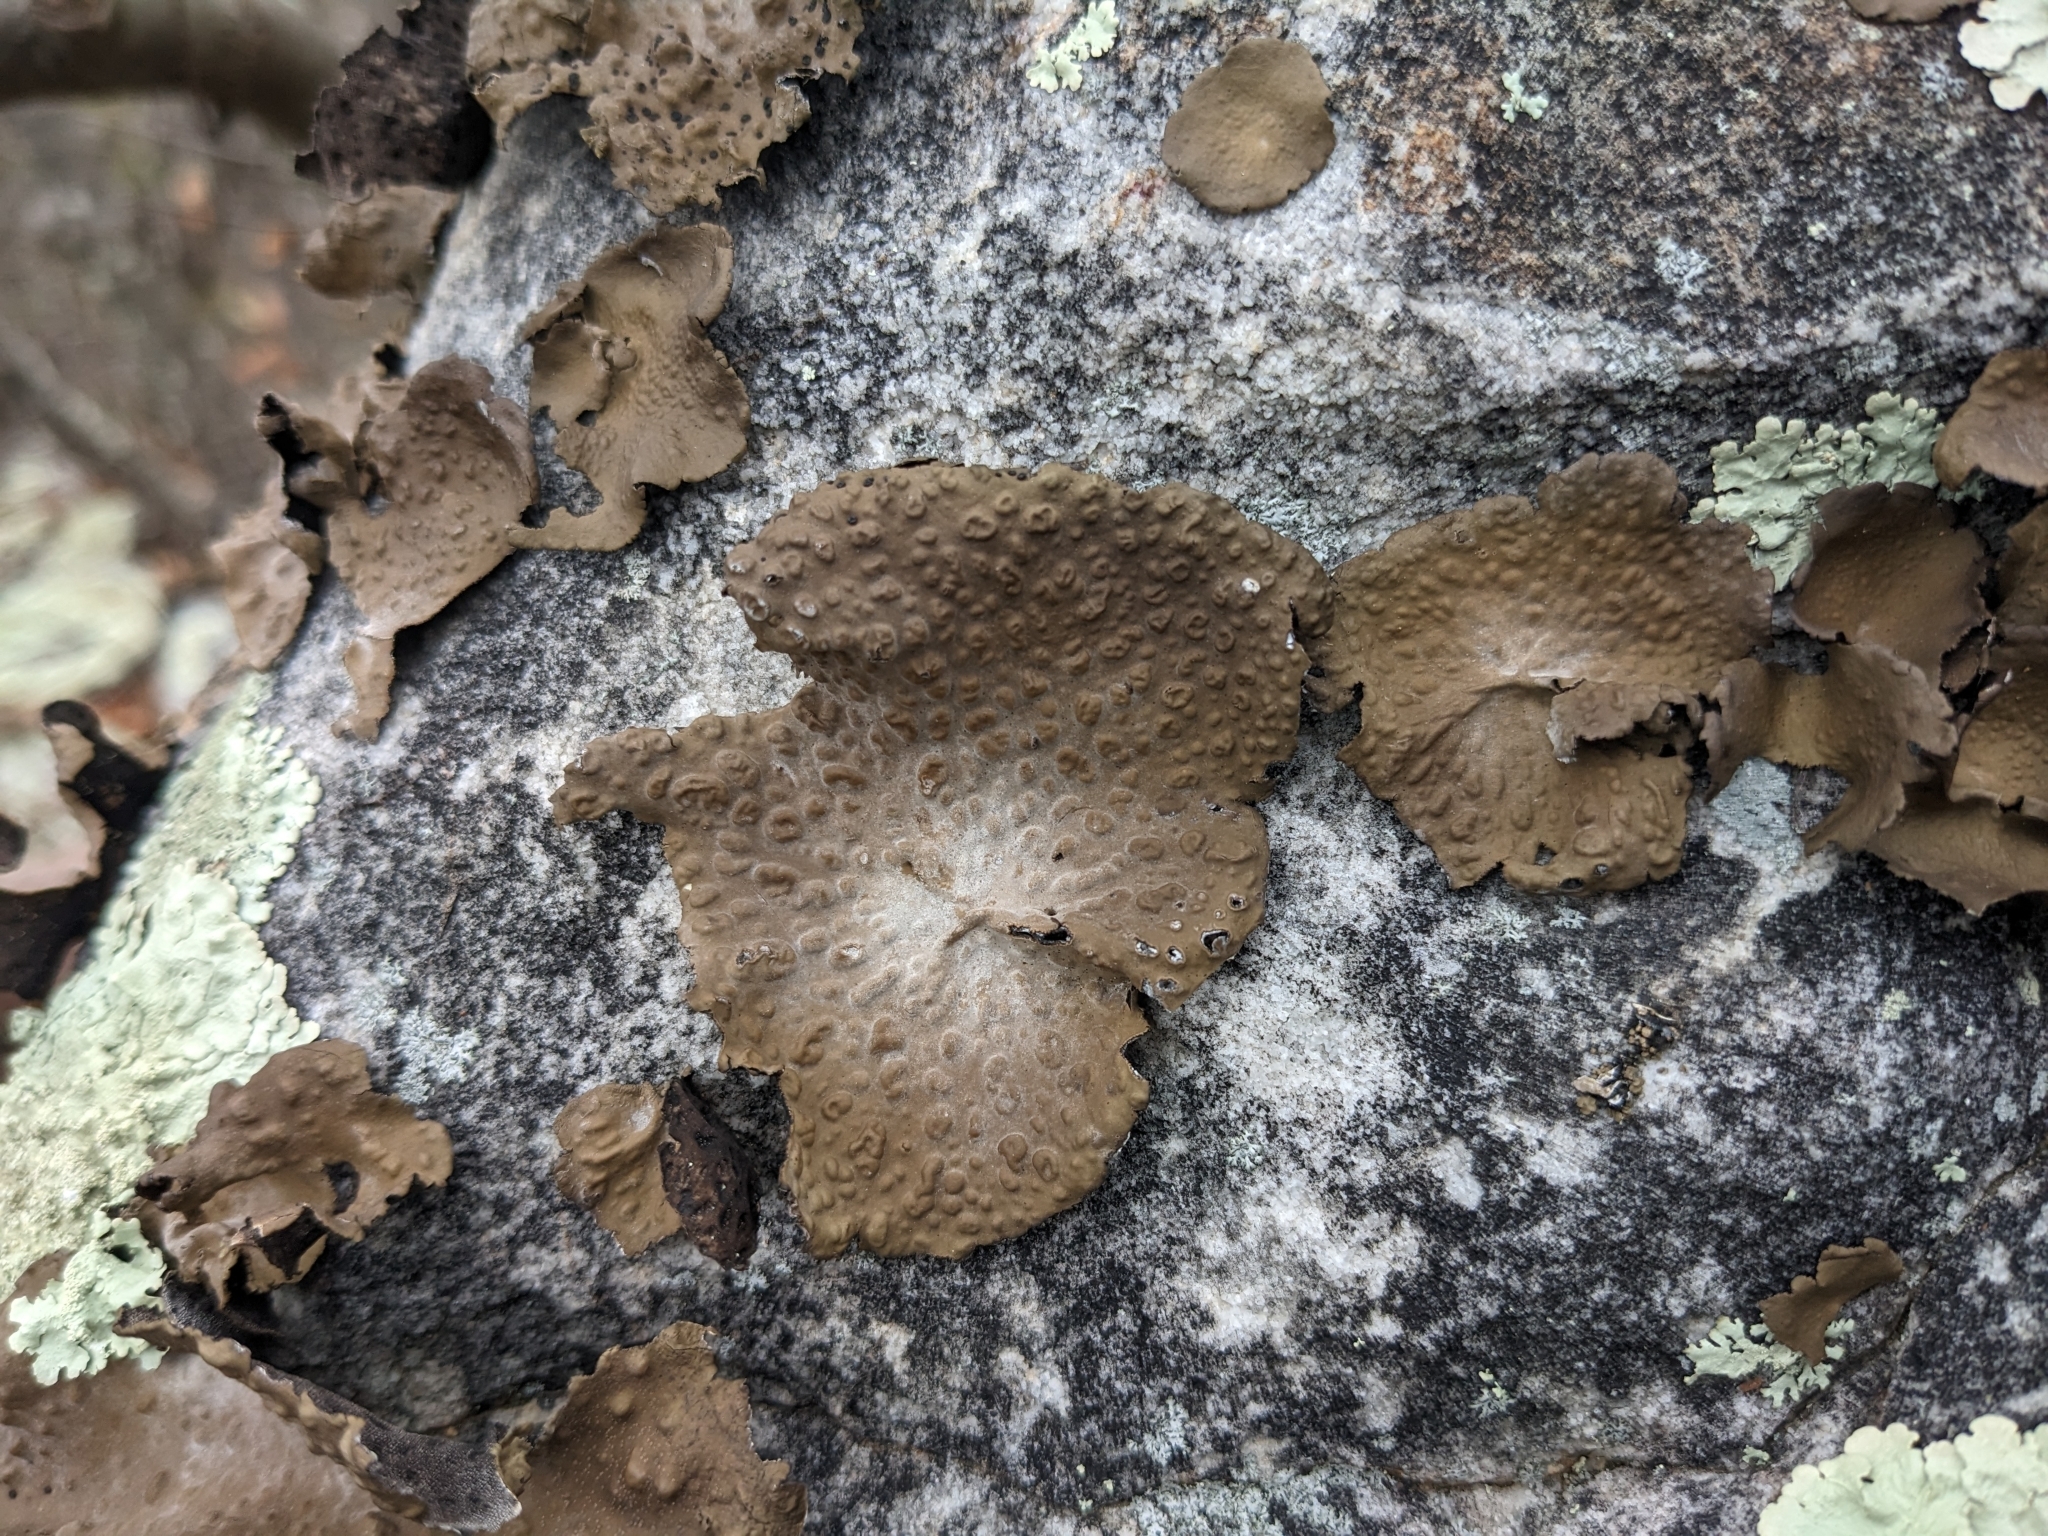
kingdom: Fungi
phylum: Ascomycota
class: Lecanoromycetes
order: Umbilicariales
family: Umbilicariaceae
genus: Lasallia
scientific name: Lasallia pensylvanica
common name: Blackened toadskin lichen
